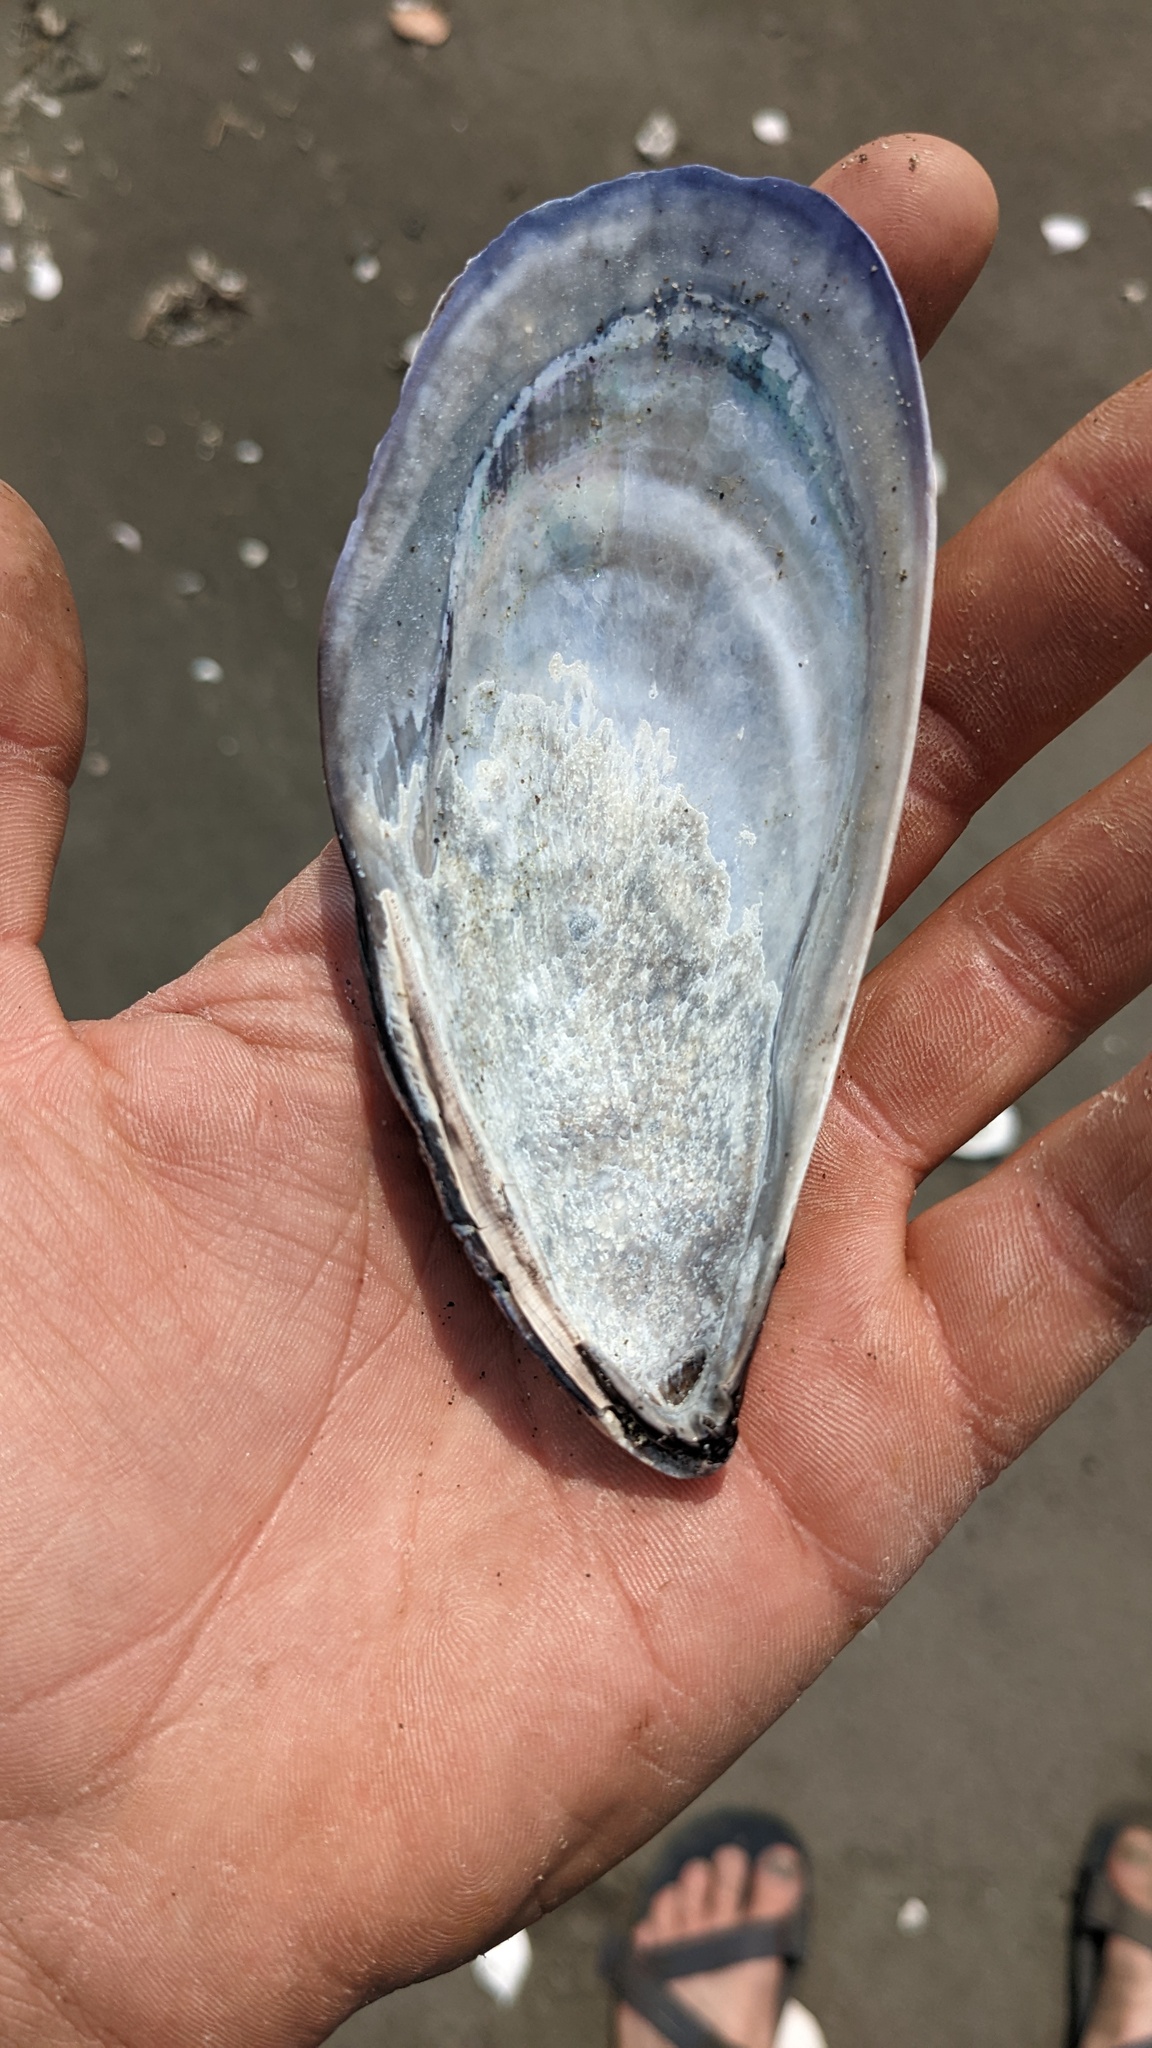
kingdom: Animalia
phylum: Mollusca
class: Bivalvia
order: Mytilida
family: Mytilidae
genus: Mytilus
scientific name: Mytilus californianus
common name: California mussel
